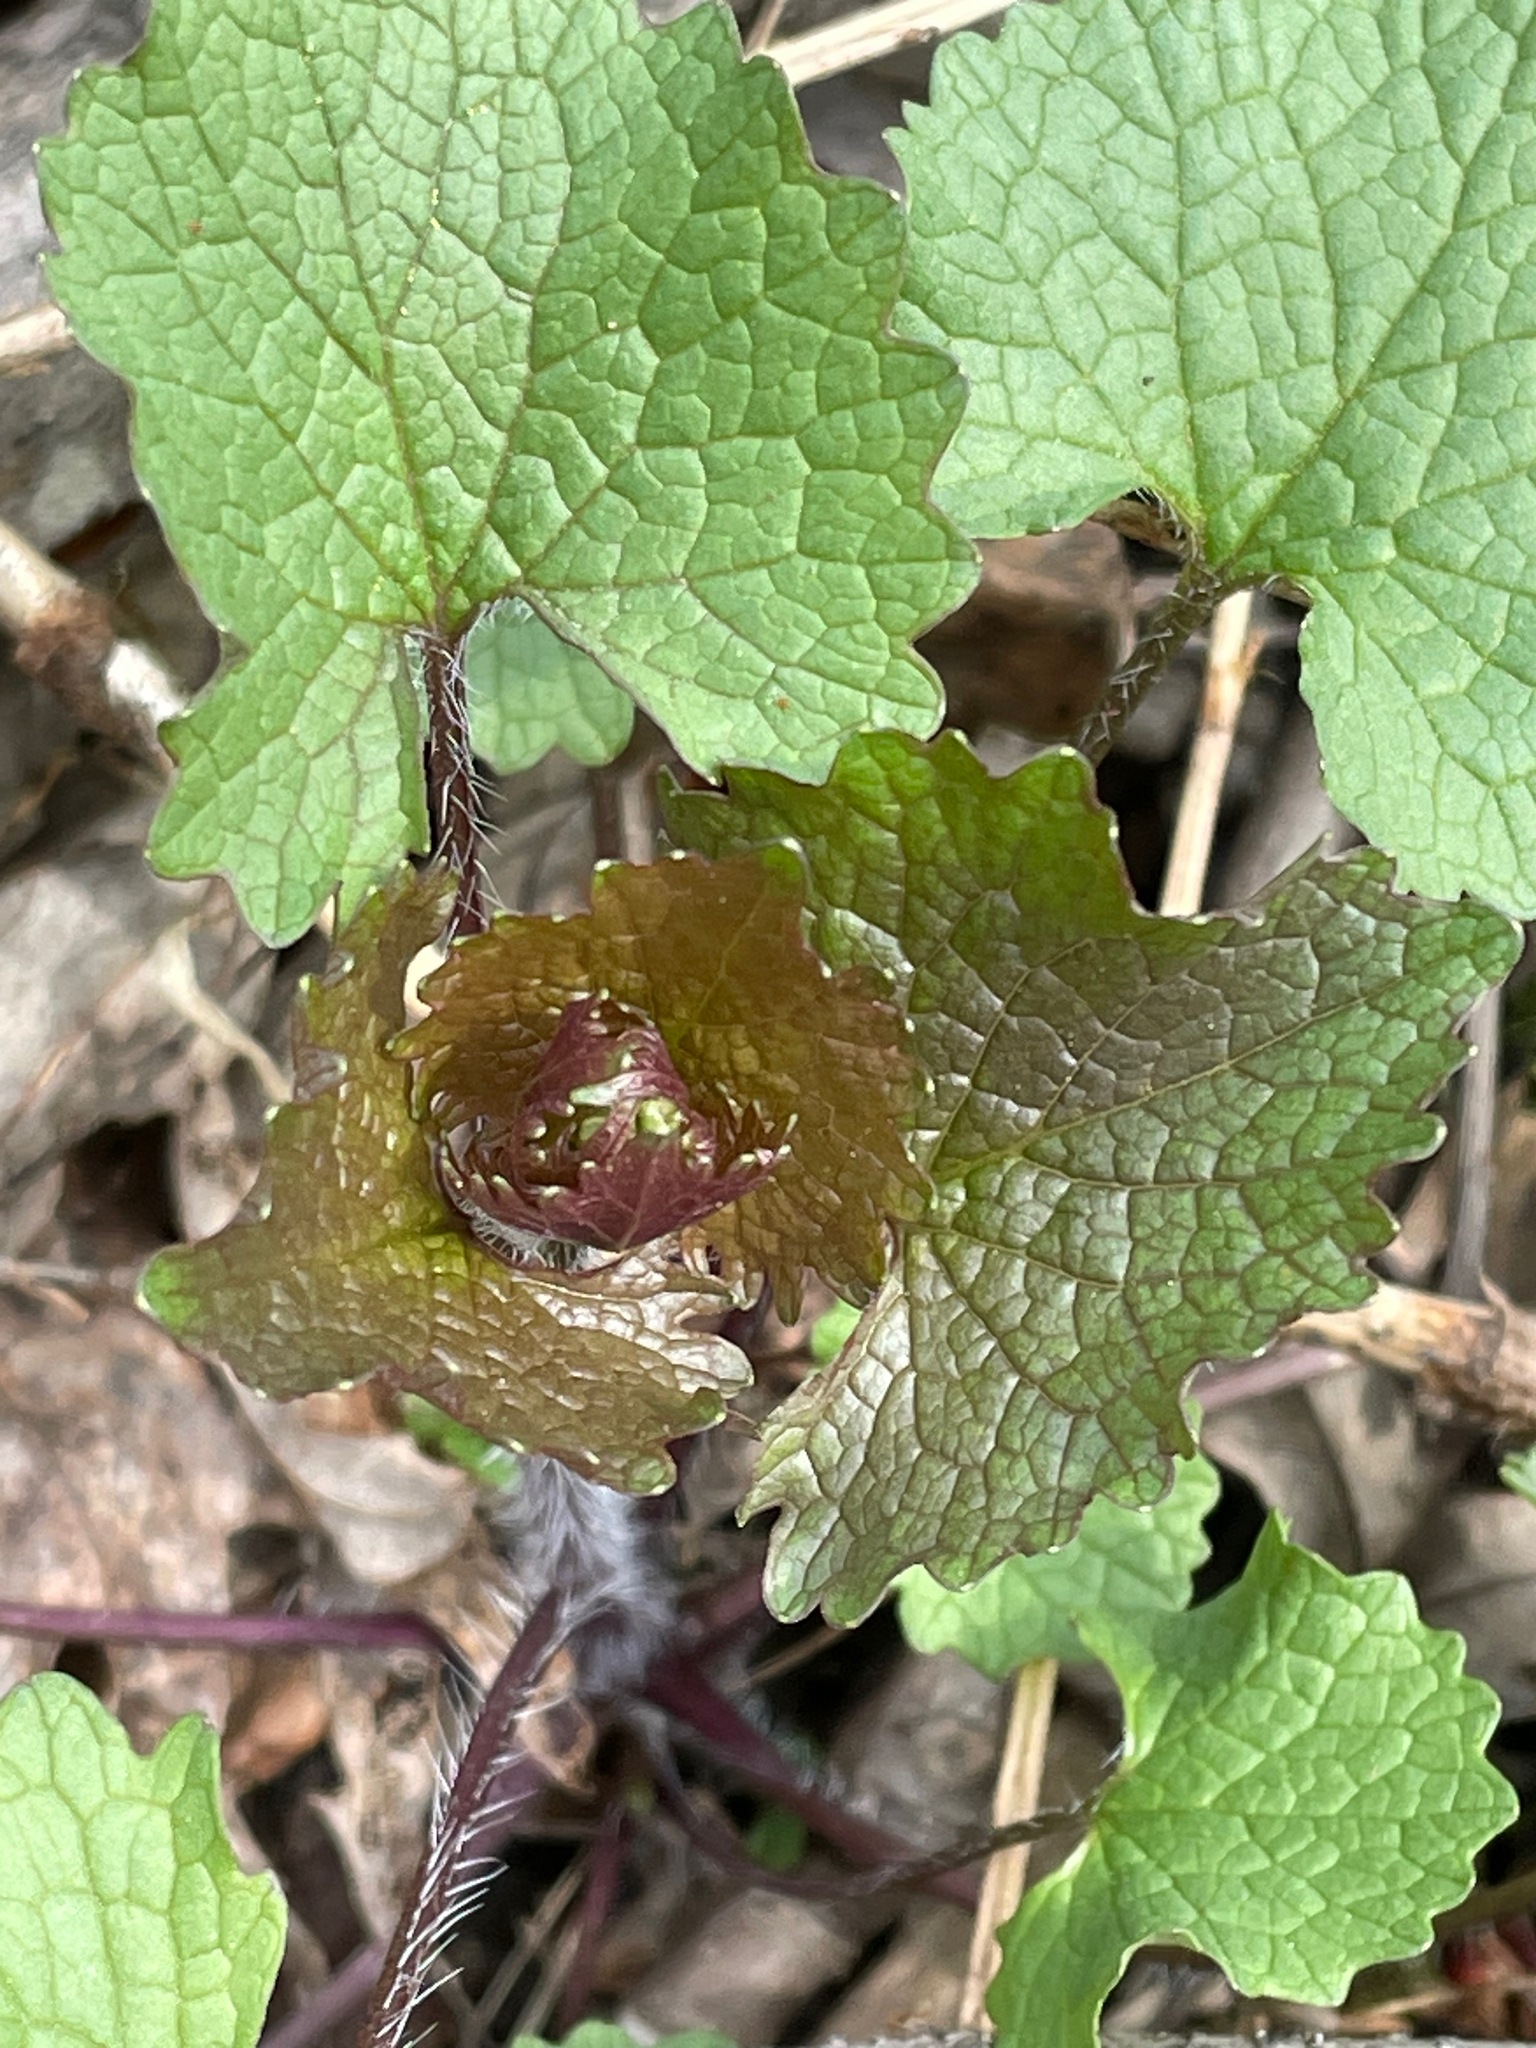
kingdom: Plantae
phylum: Tracheophyta
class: Magnoliopsida
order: Brassicales
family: Brassicaceae
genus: Alliaria
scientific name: Alliaria petiolata
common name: Garlic mustard
